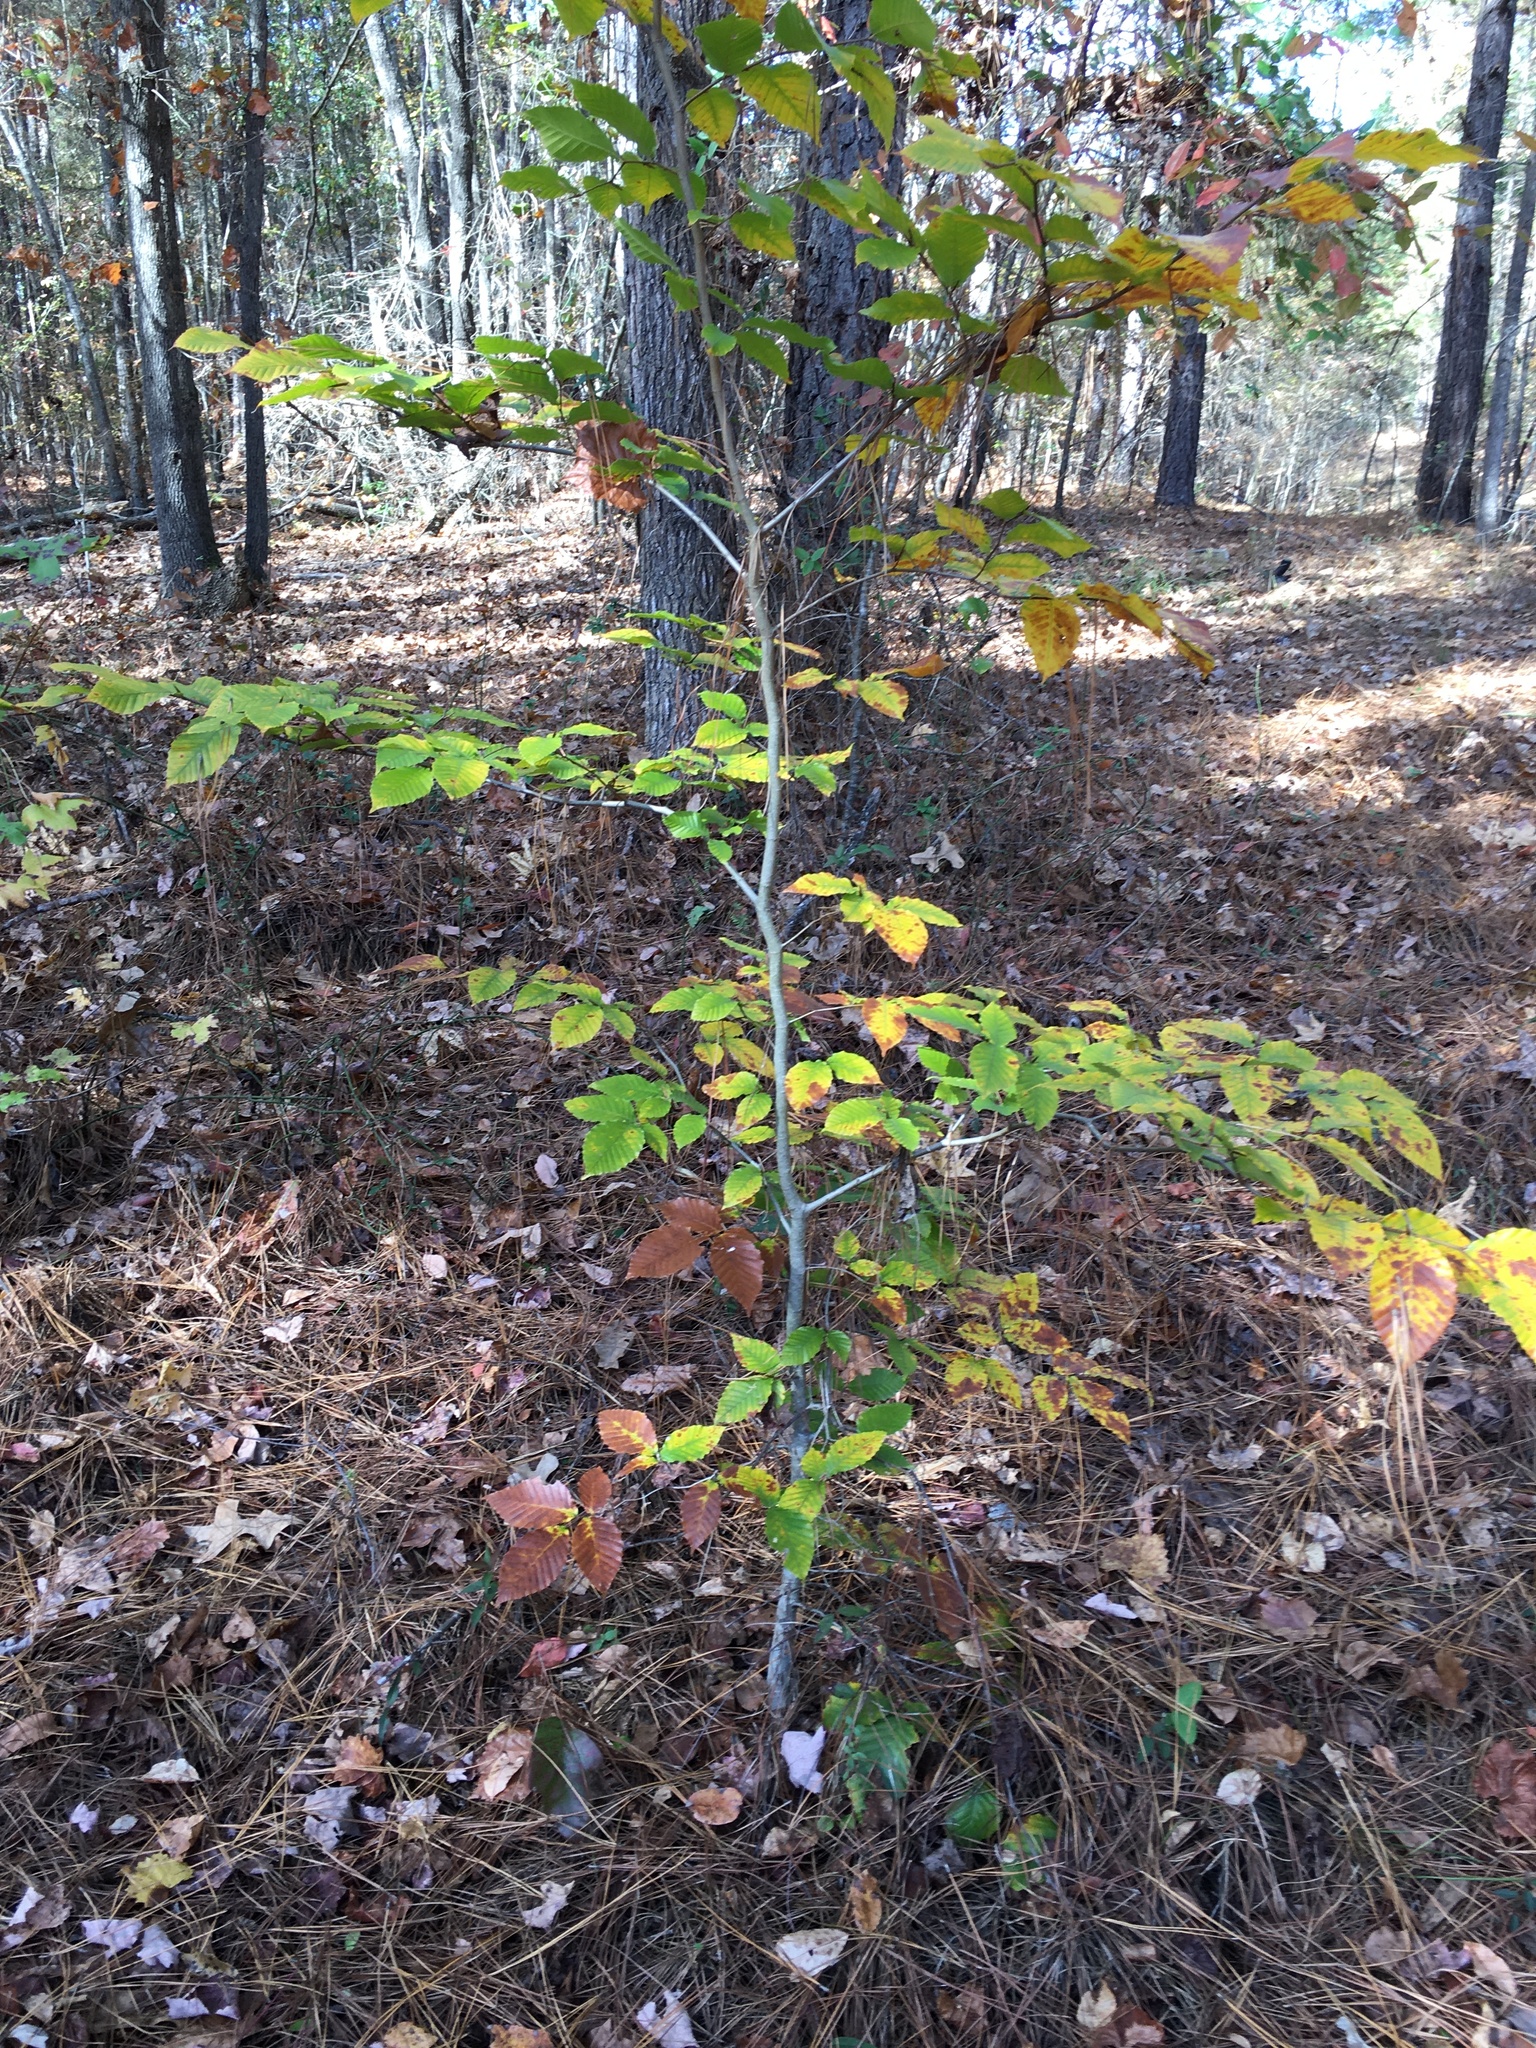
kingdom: Plantae
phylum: Tracheophyta
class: Magnoliopsida
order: Fagales
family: Fagaceae
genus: Fagus
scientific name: Fagus grandifolia
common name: American beech
